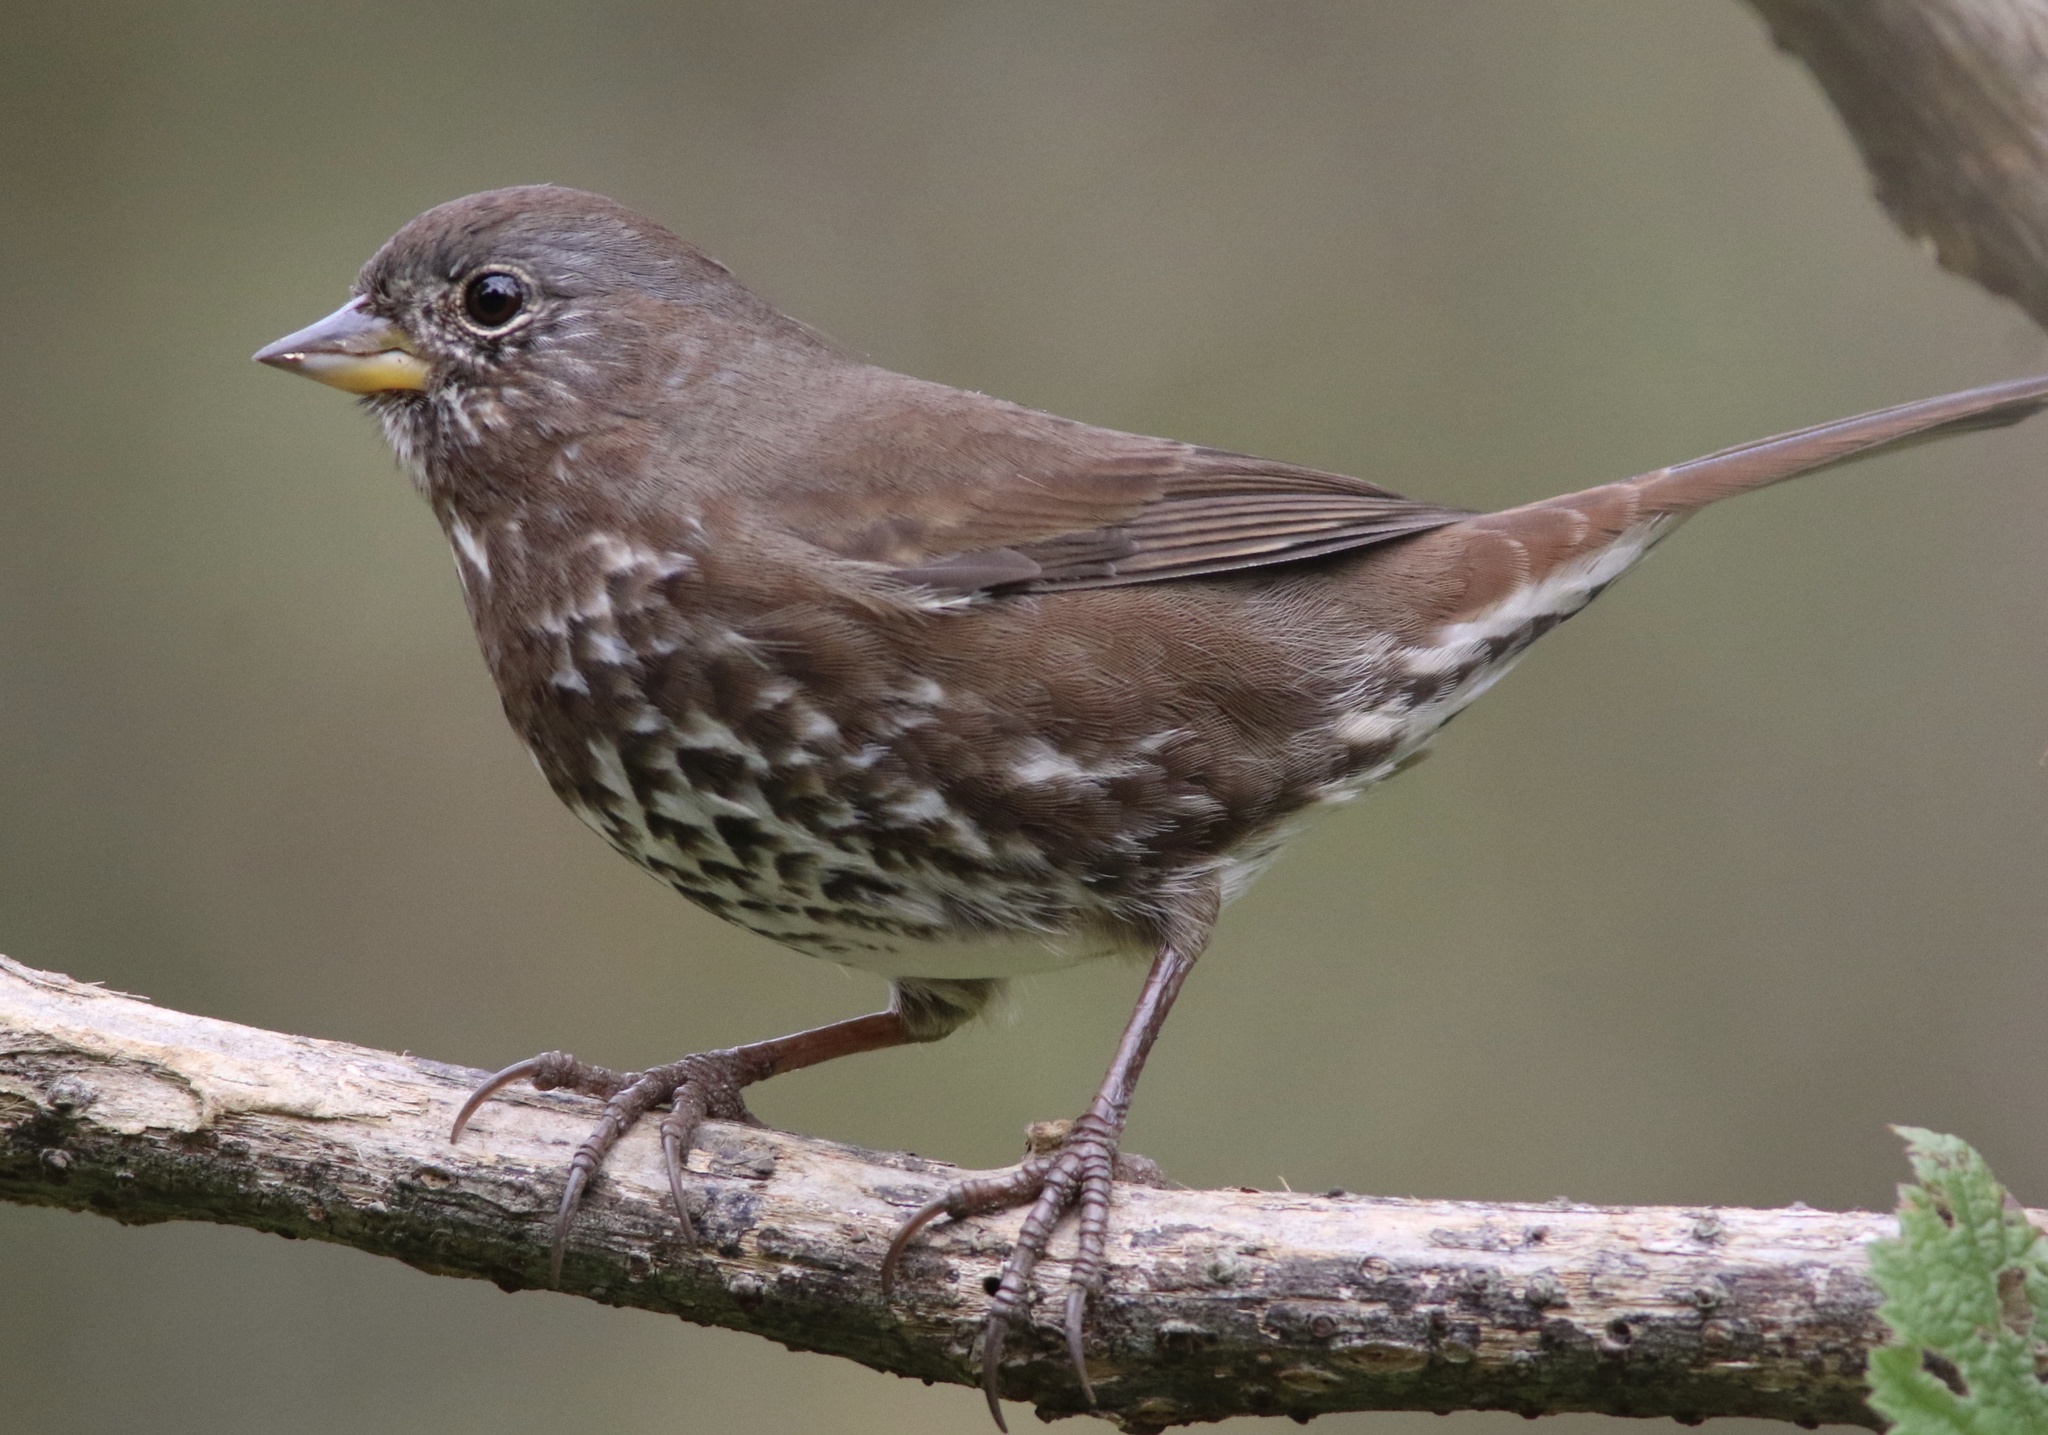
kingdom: Animalia
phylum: Chordata
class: Aves
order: Passeriformes
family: Passerellidae
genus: Passerella
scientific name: Passerella iliaca
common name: Fox sparrow
